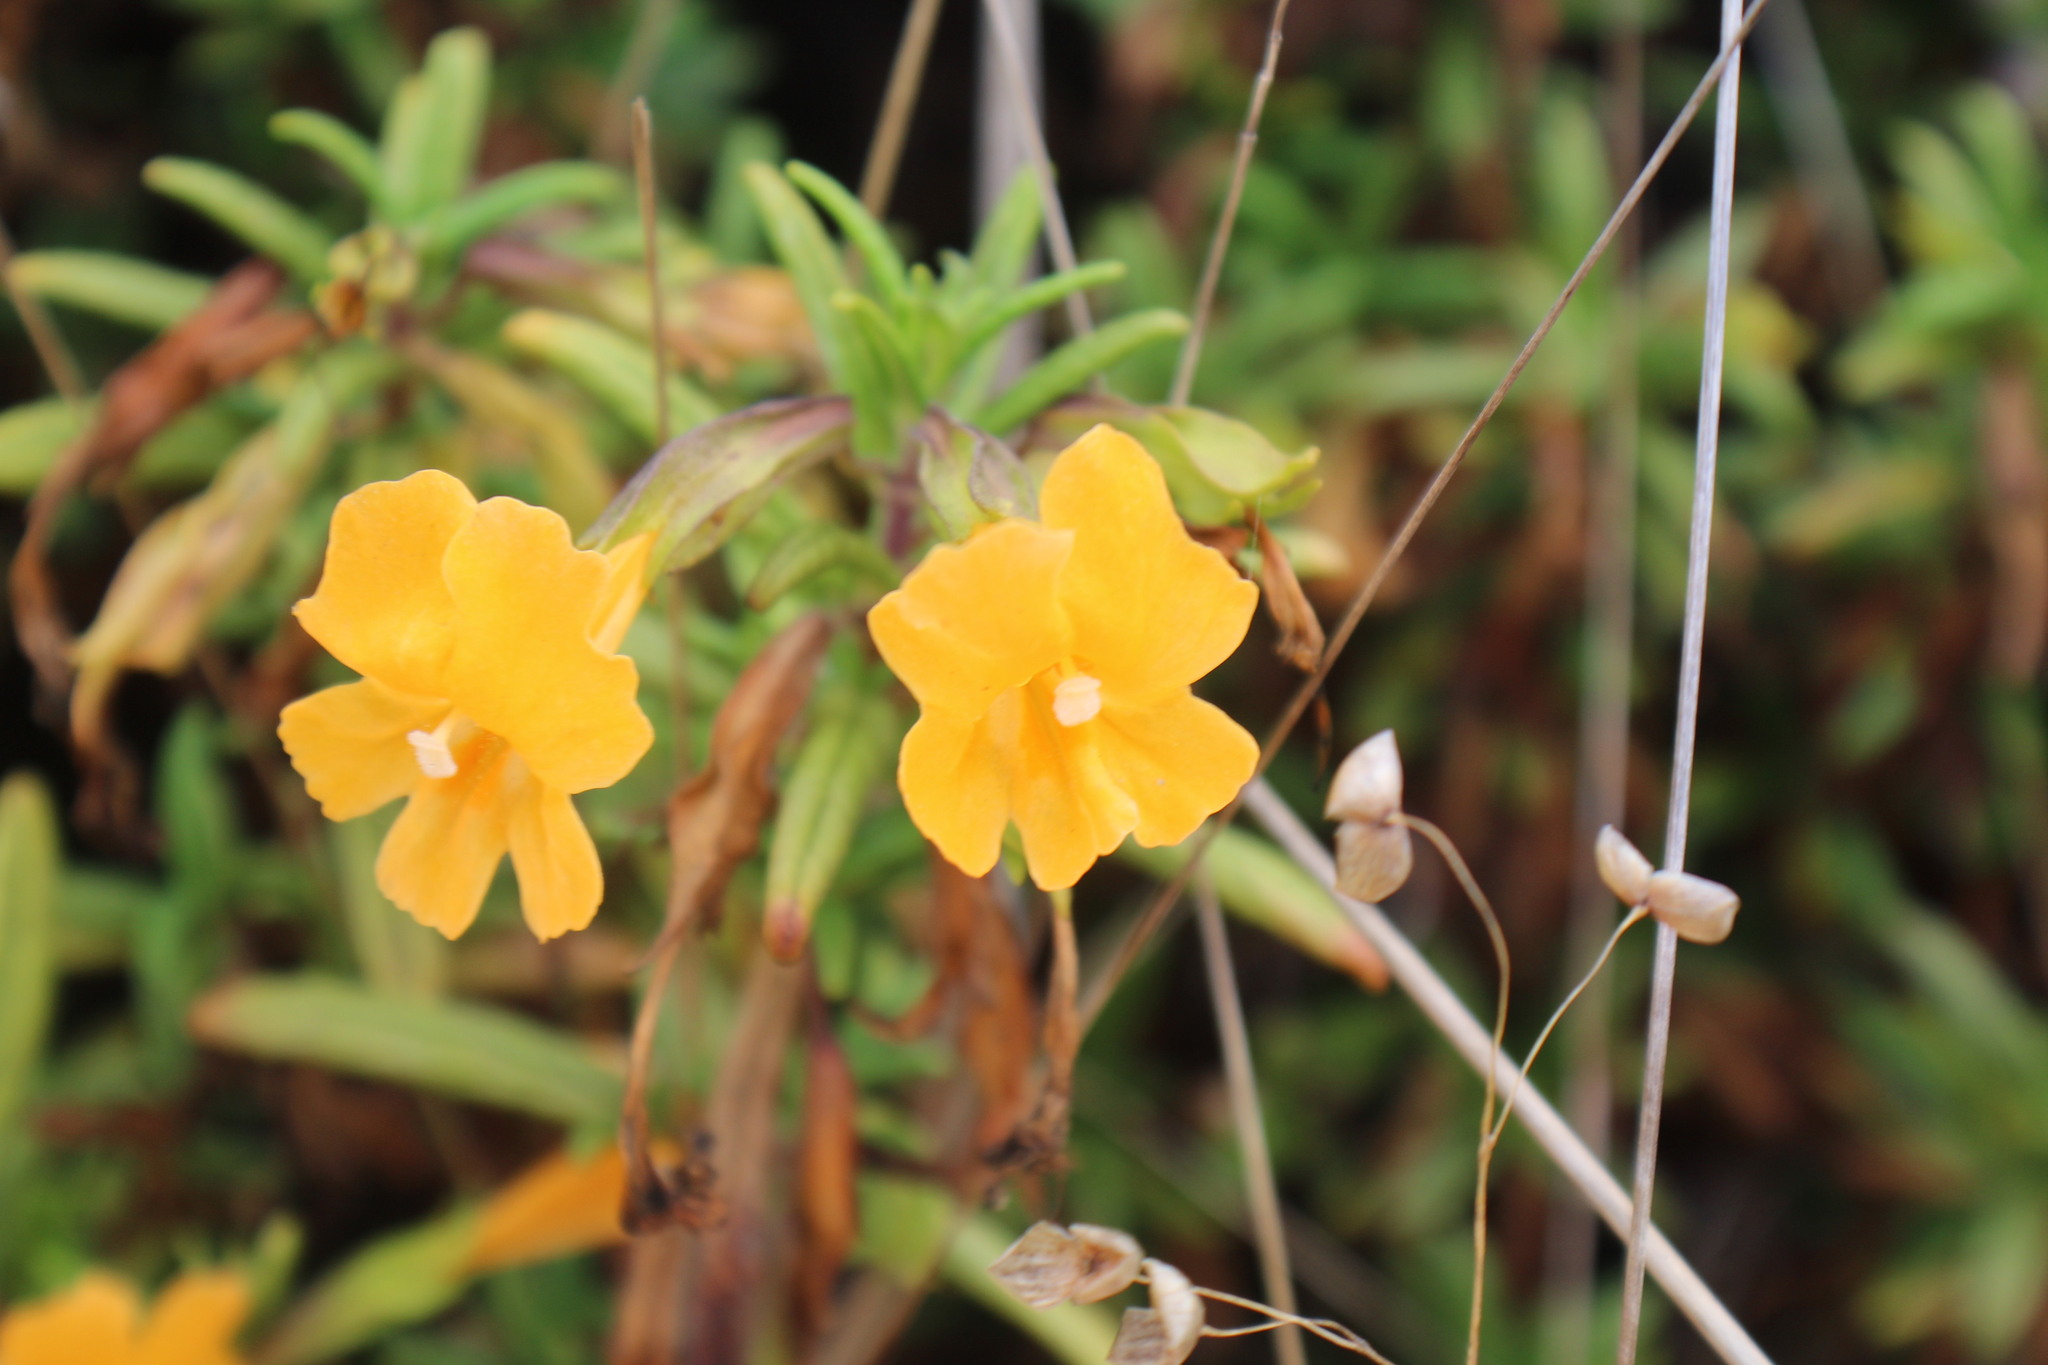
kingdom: Plantae
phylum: Tracheophyta
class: Magnoliopsida
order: Lamiales
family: Phrymaceae
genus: Diplacus
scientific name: Diplacus aurantiacus
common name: Bush monkey-flower
